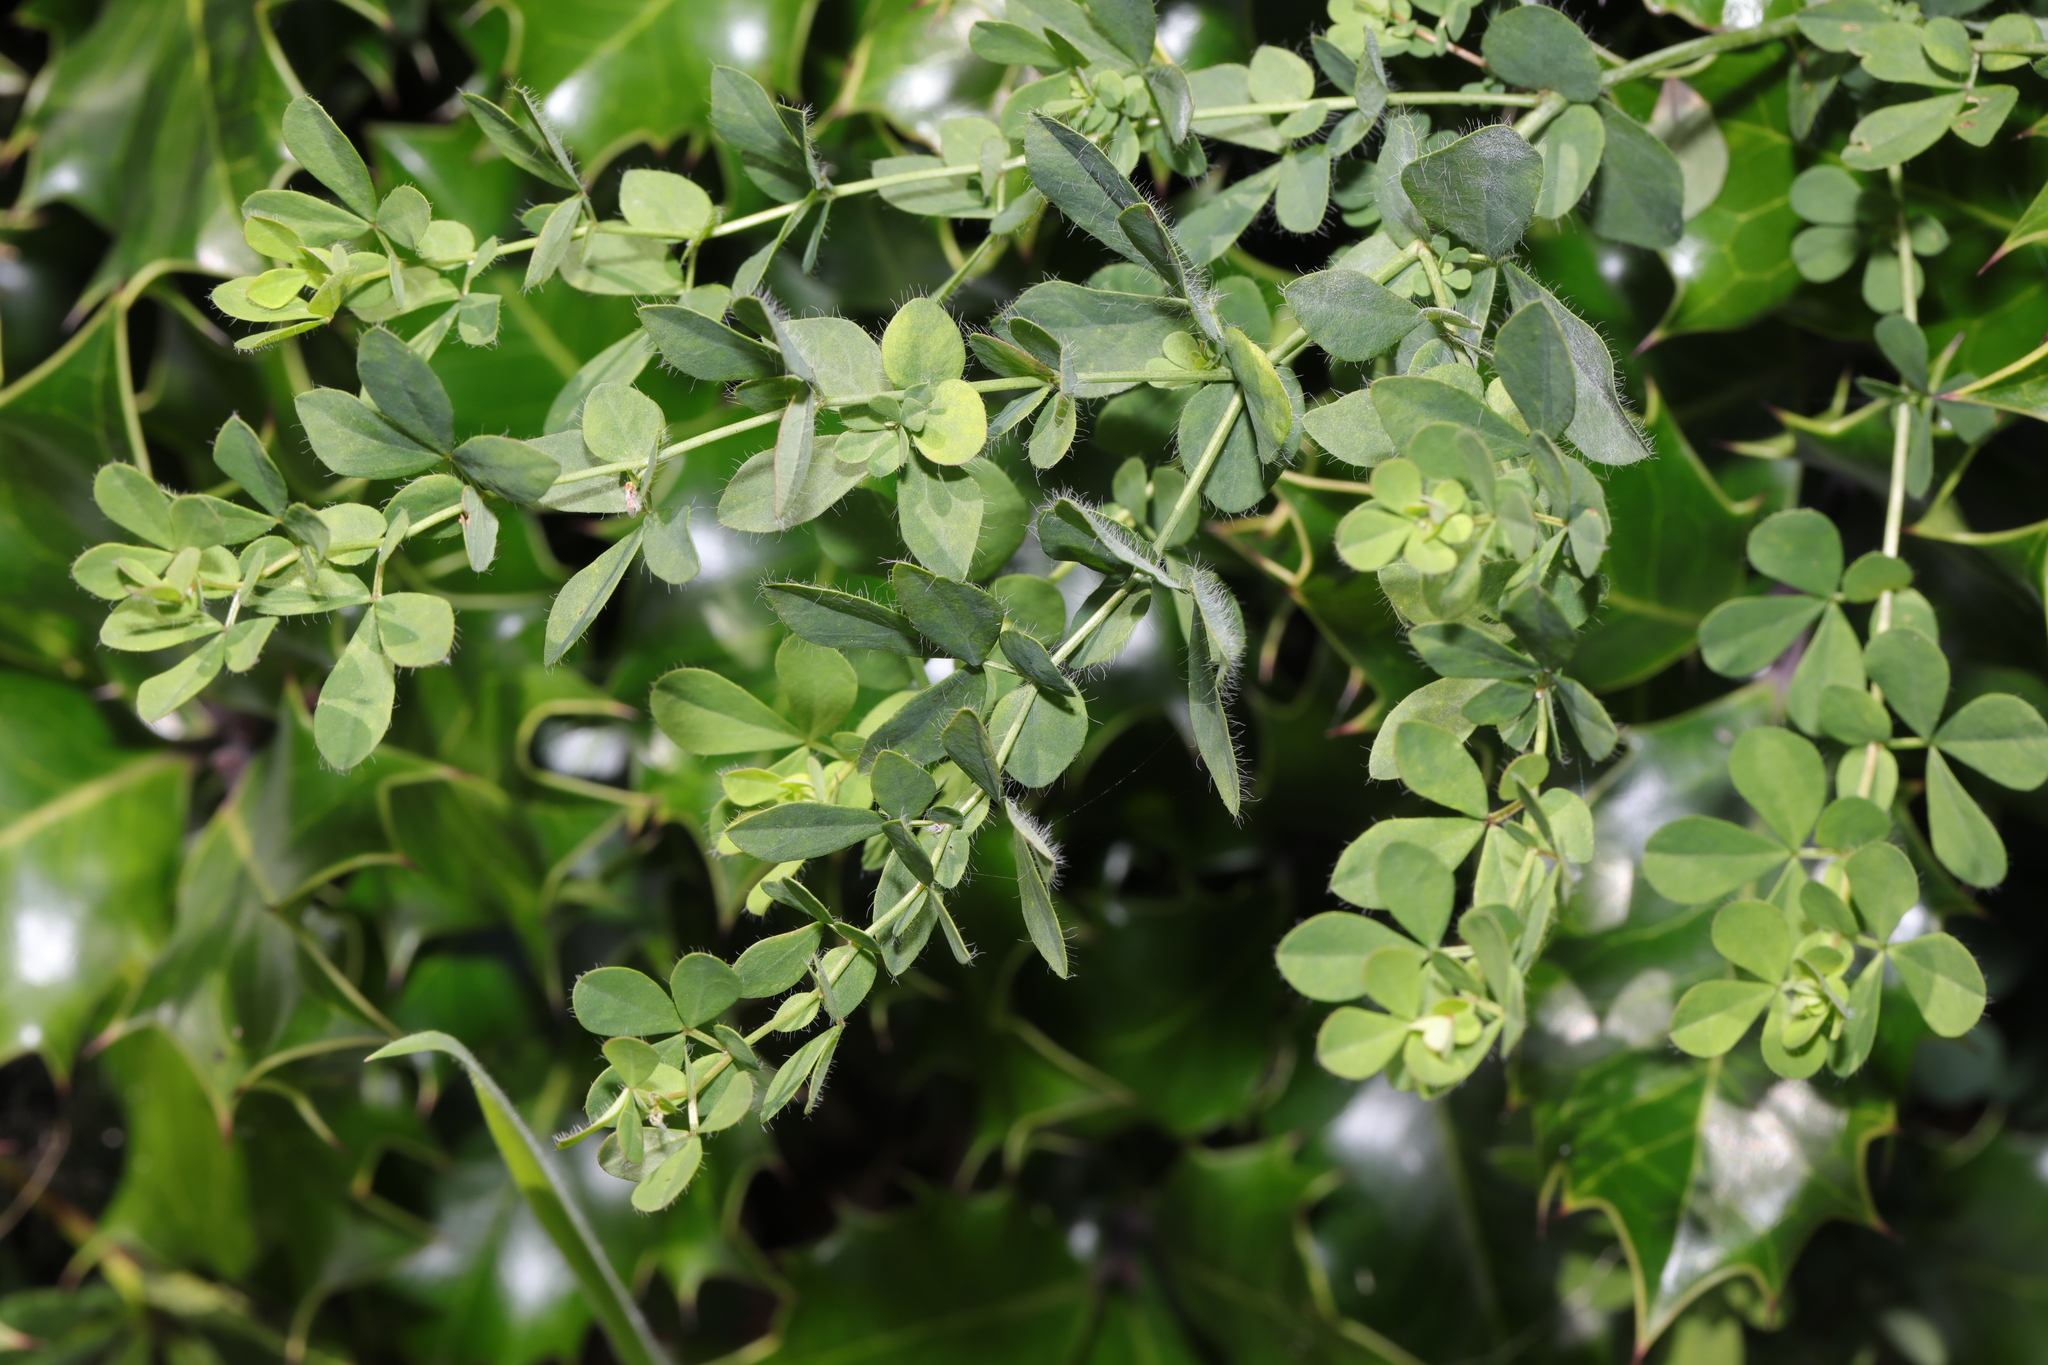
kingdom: Plantae
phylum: Tracheophyta
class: Magnoliopsida
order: Fabales
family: Fabaceae
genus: Lotus
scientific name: Lotus pedunculatus
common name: Greater birdsfoot-trefoil
